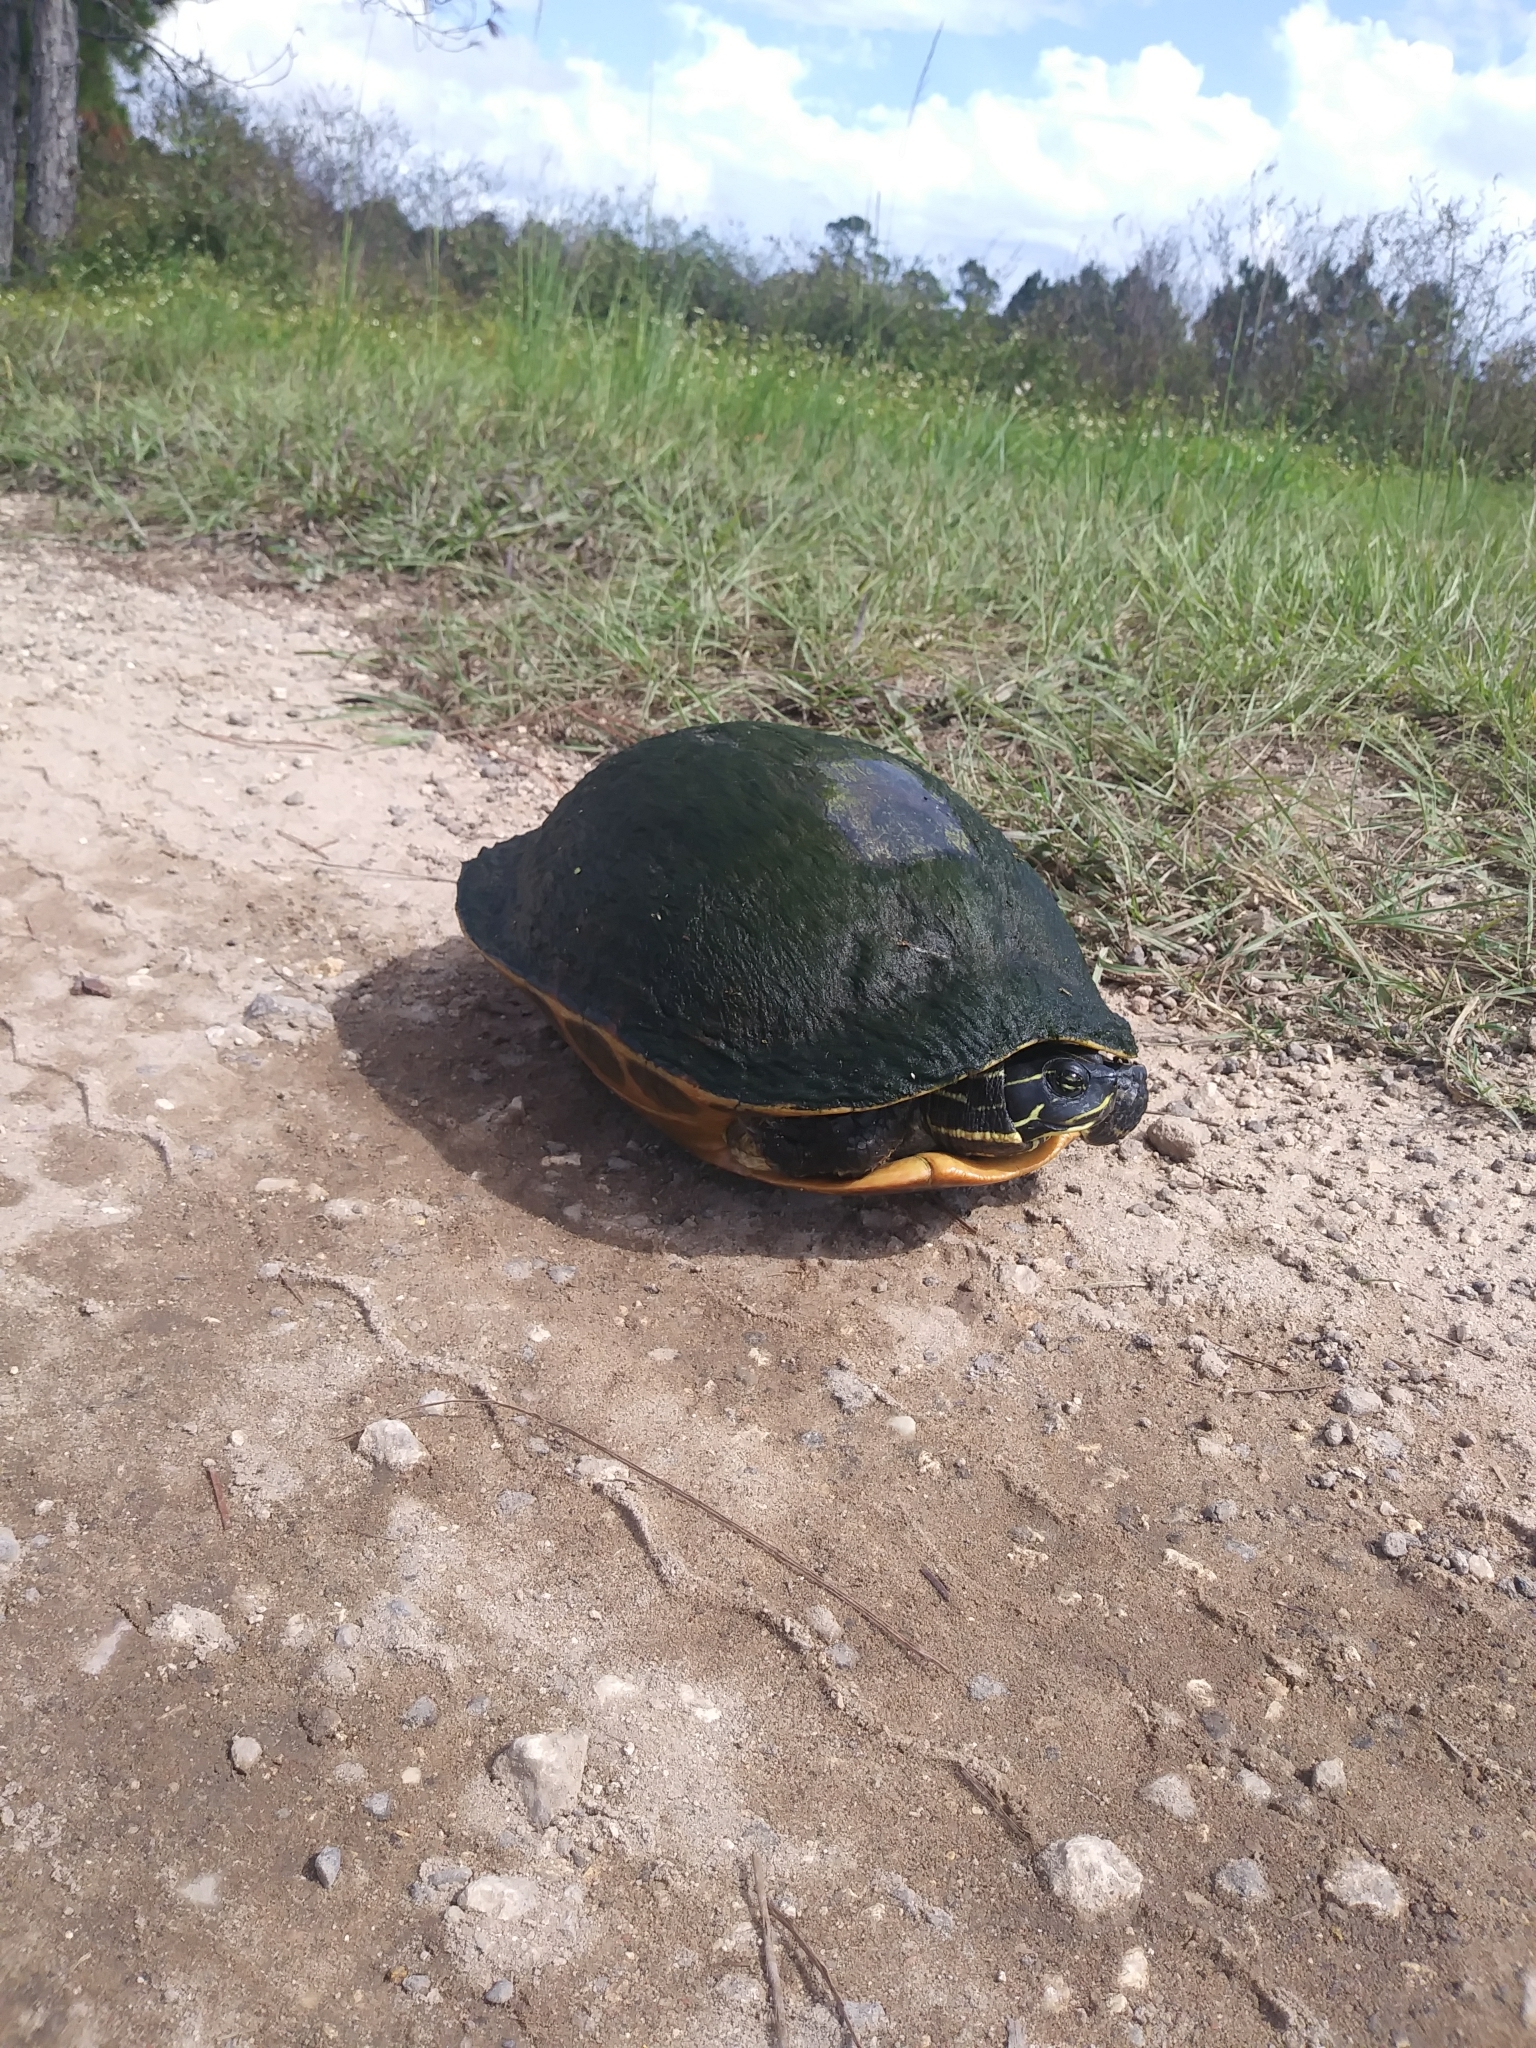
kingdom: Animalia
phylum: Chordata
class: Testudines
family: Emydidae
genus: Pseudemys
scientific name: Pseudemys nelsoni
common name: Florida red-bellied turtle
